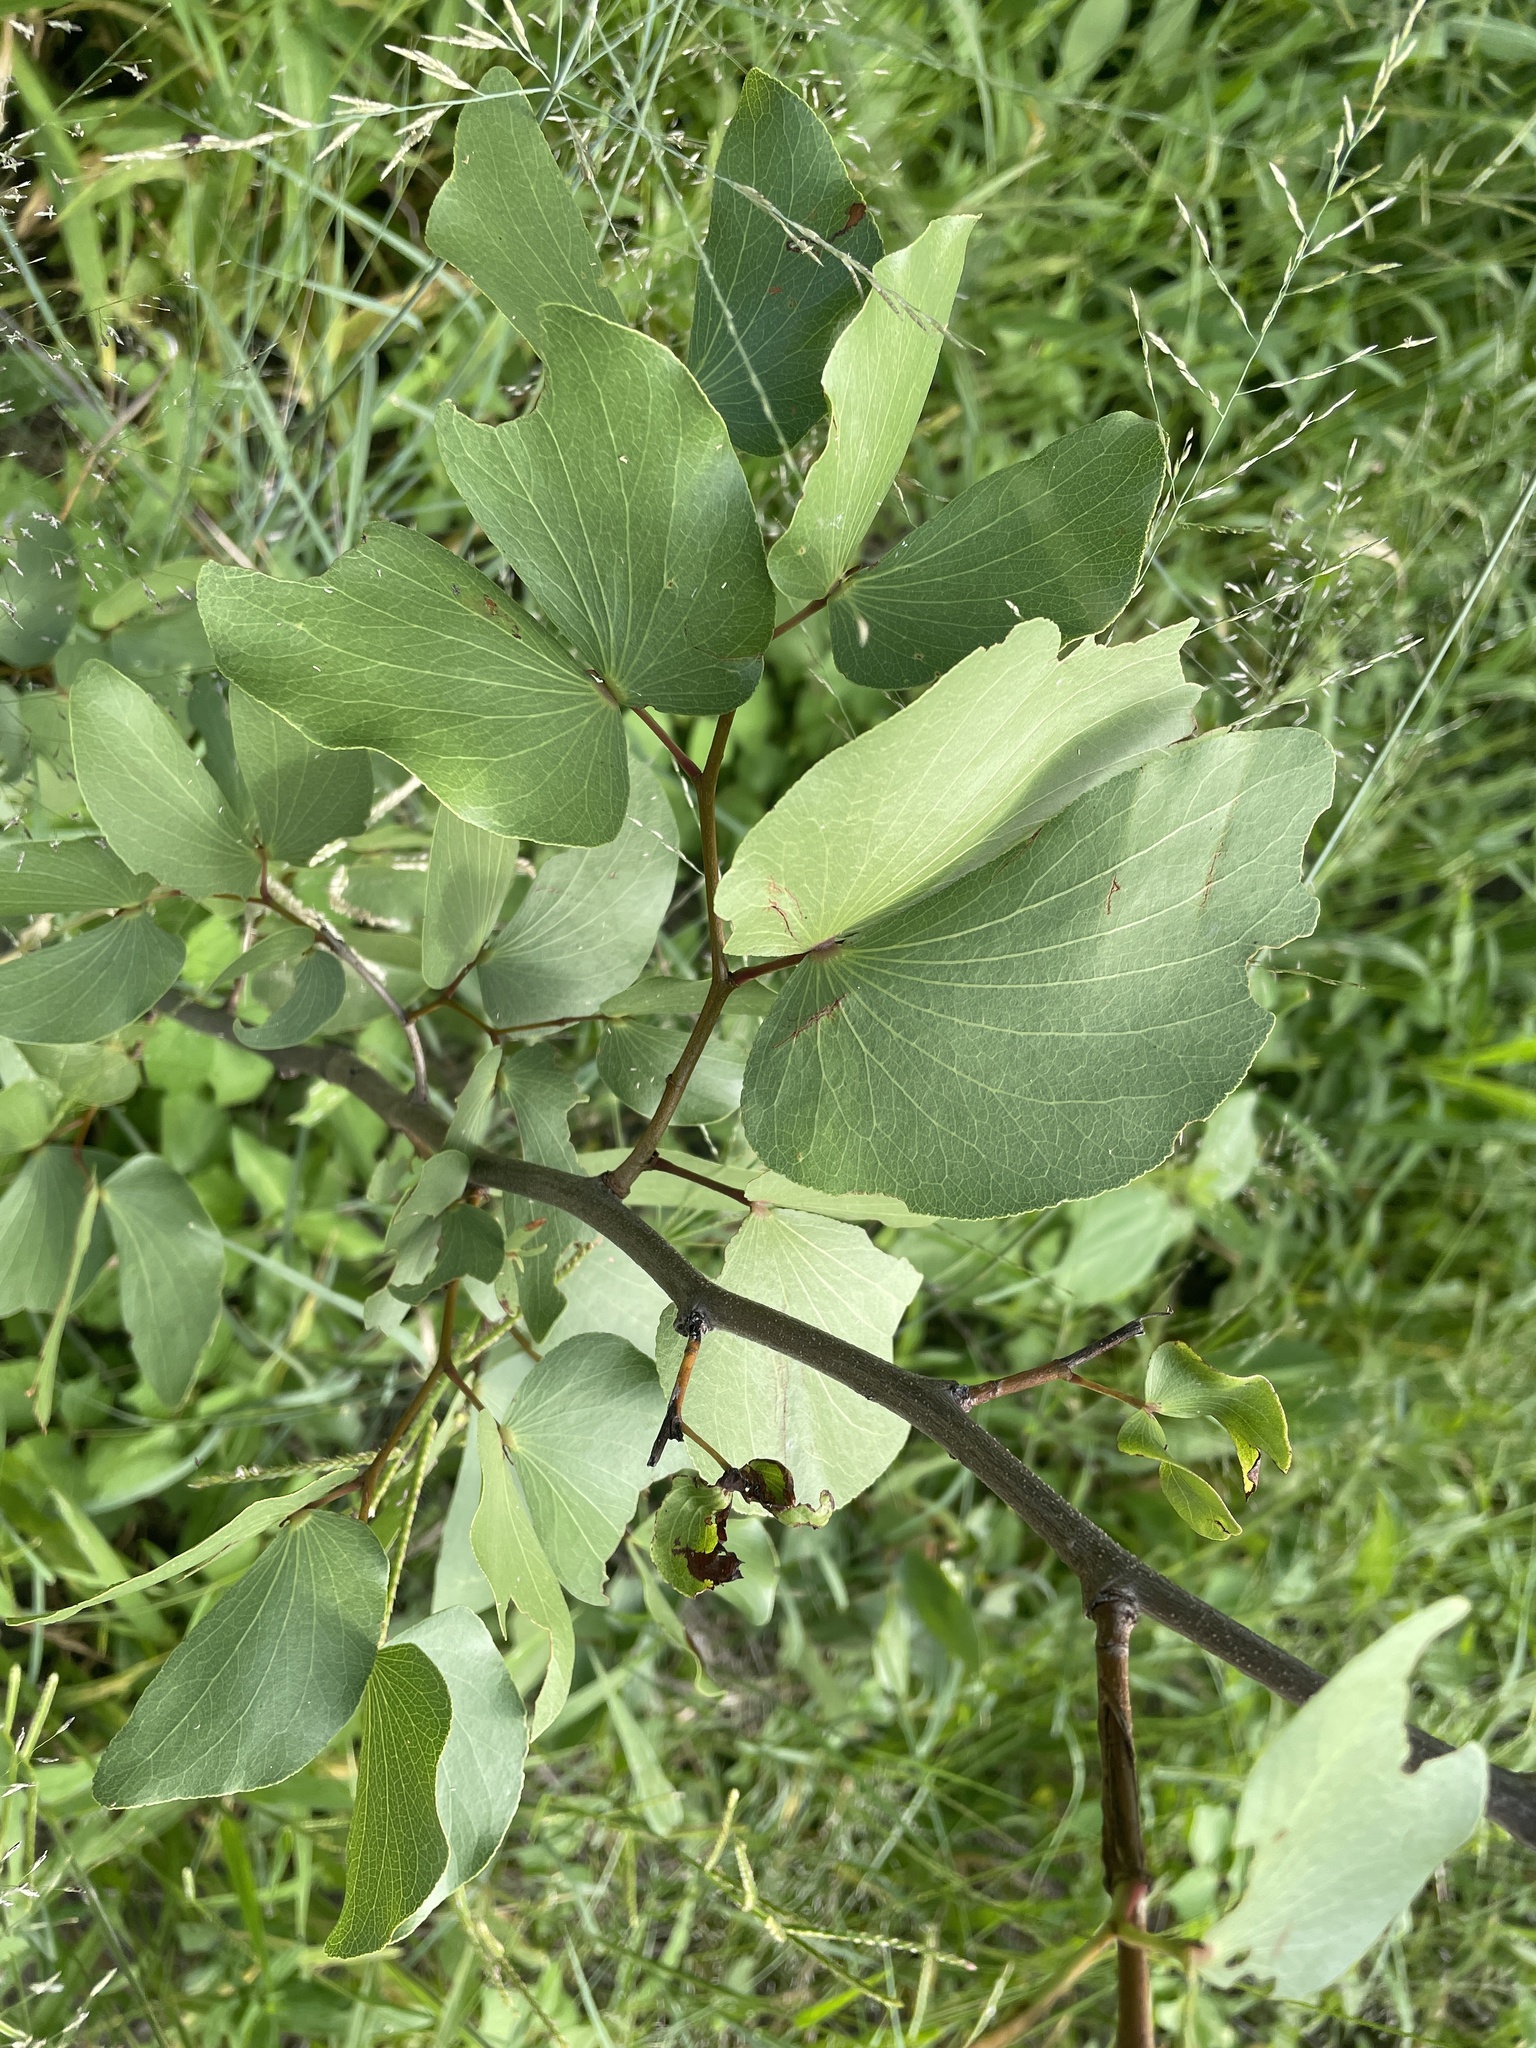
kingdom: Plantae
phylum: Tracheophyta
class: Magnoliopsida
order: Fabales
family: Fabaceae
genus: Colophospermum
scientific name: Colophospermum mopane
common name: Mopane
